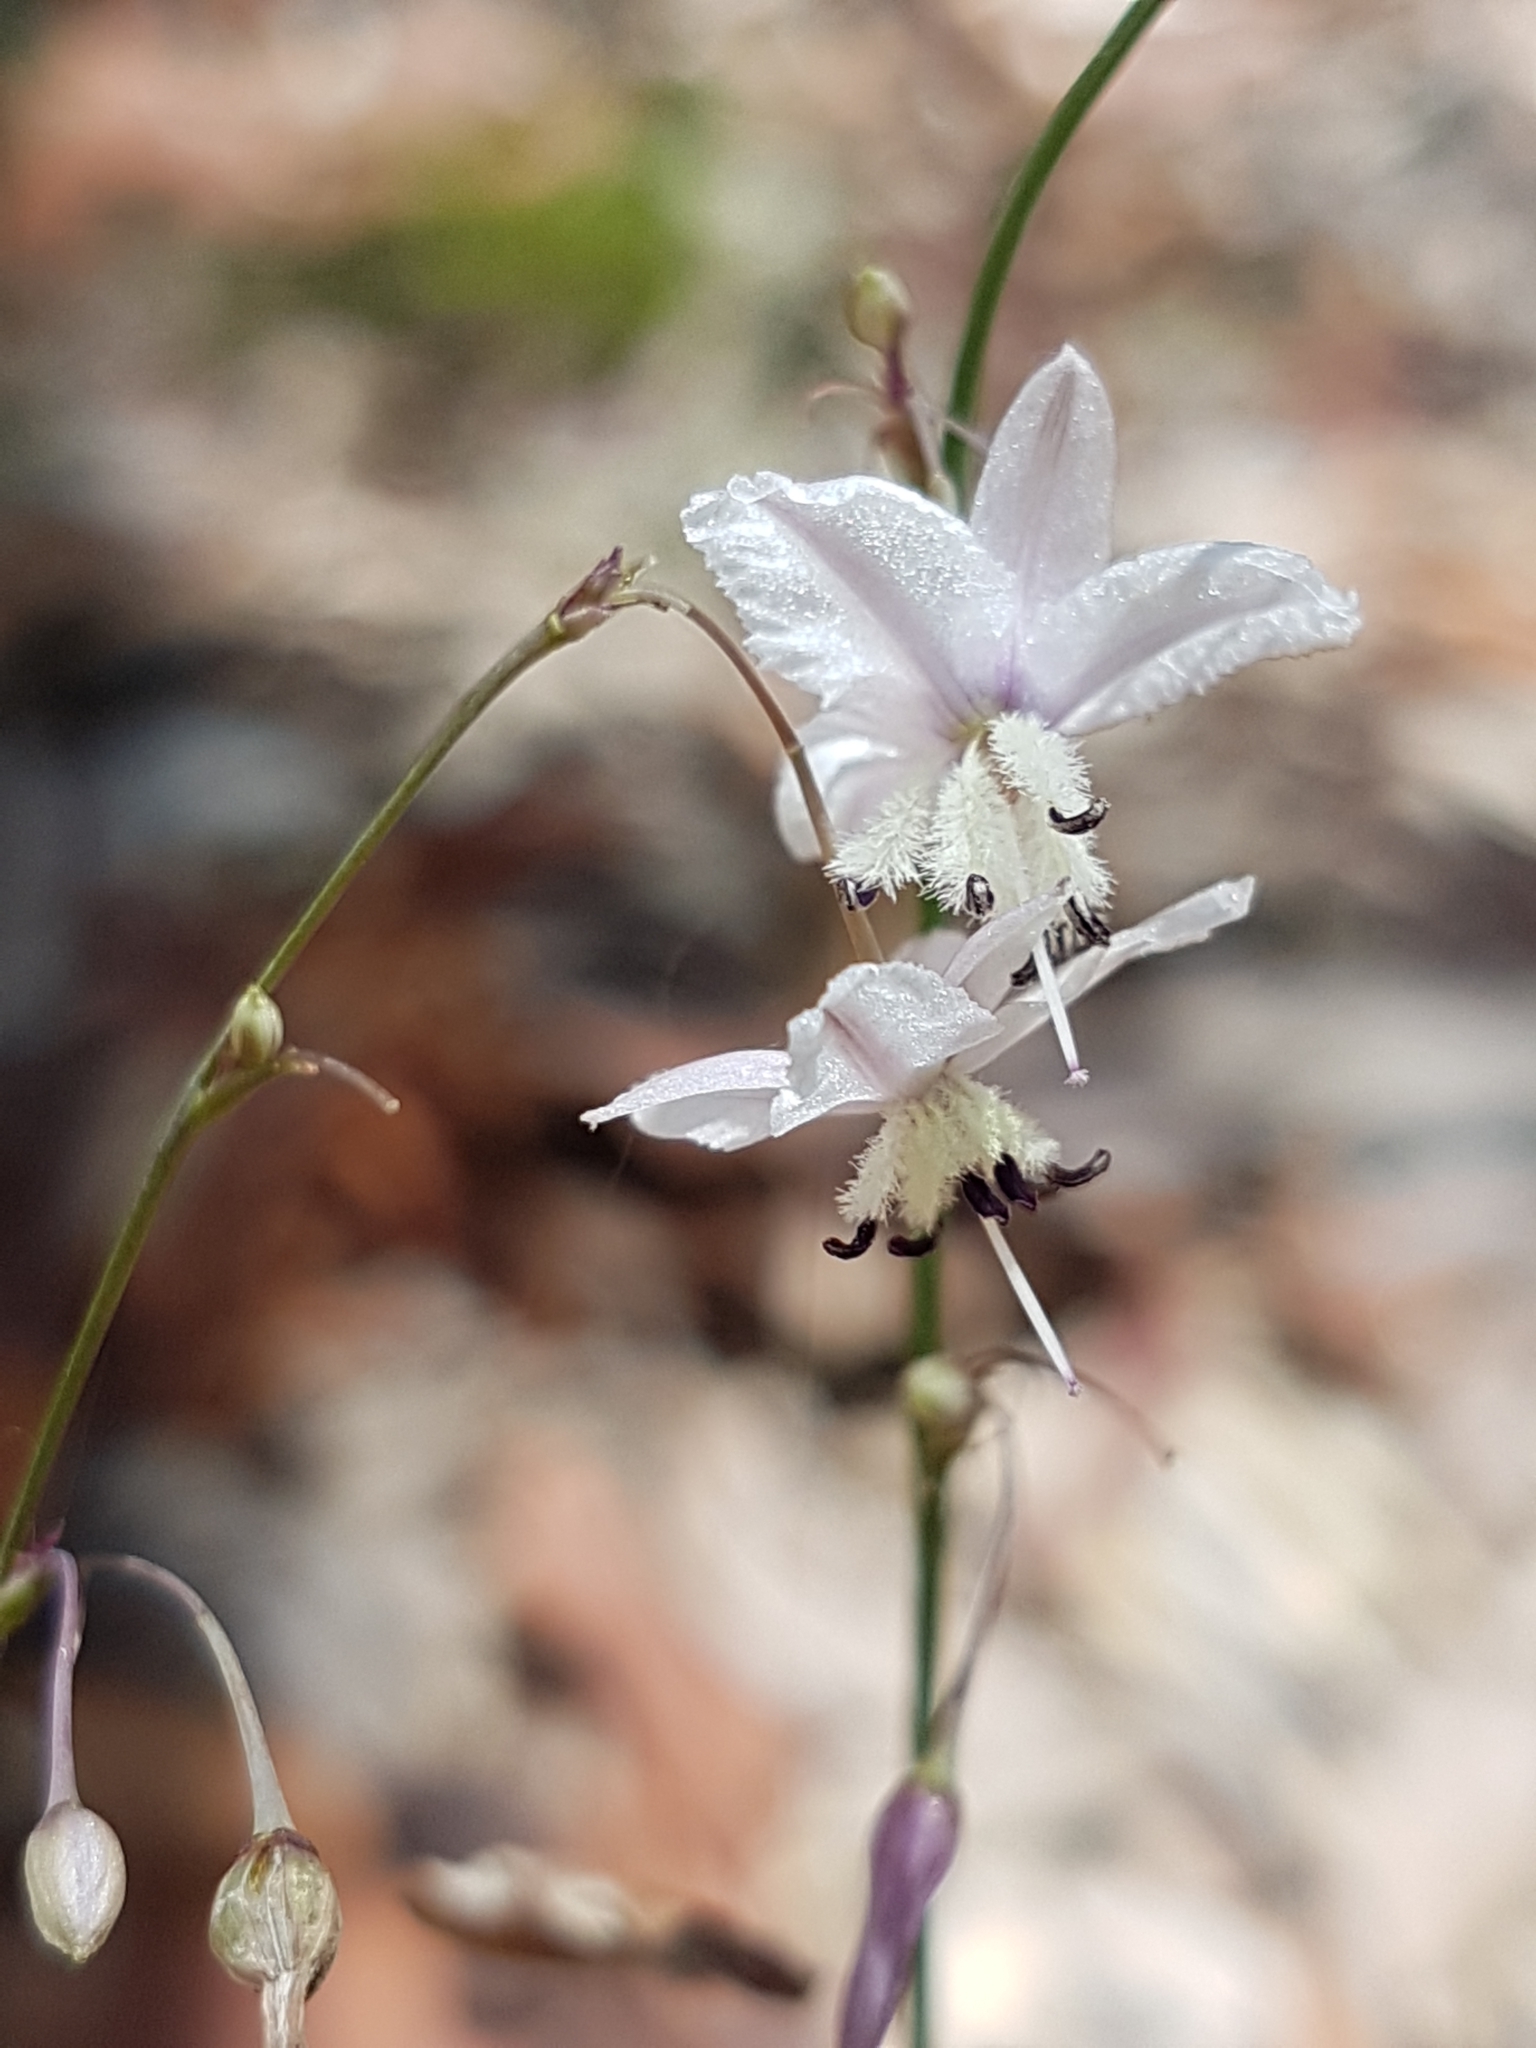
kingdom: Plantae
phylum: Tracheophyta
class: Liliopsida
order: Asparagales
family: Asparagaceae
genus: Arthropodium
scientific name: Arthropodium milleflorum
